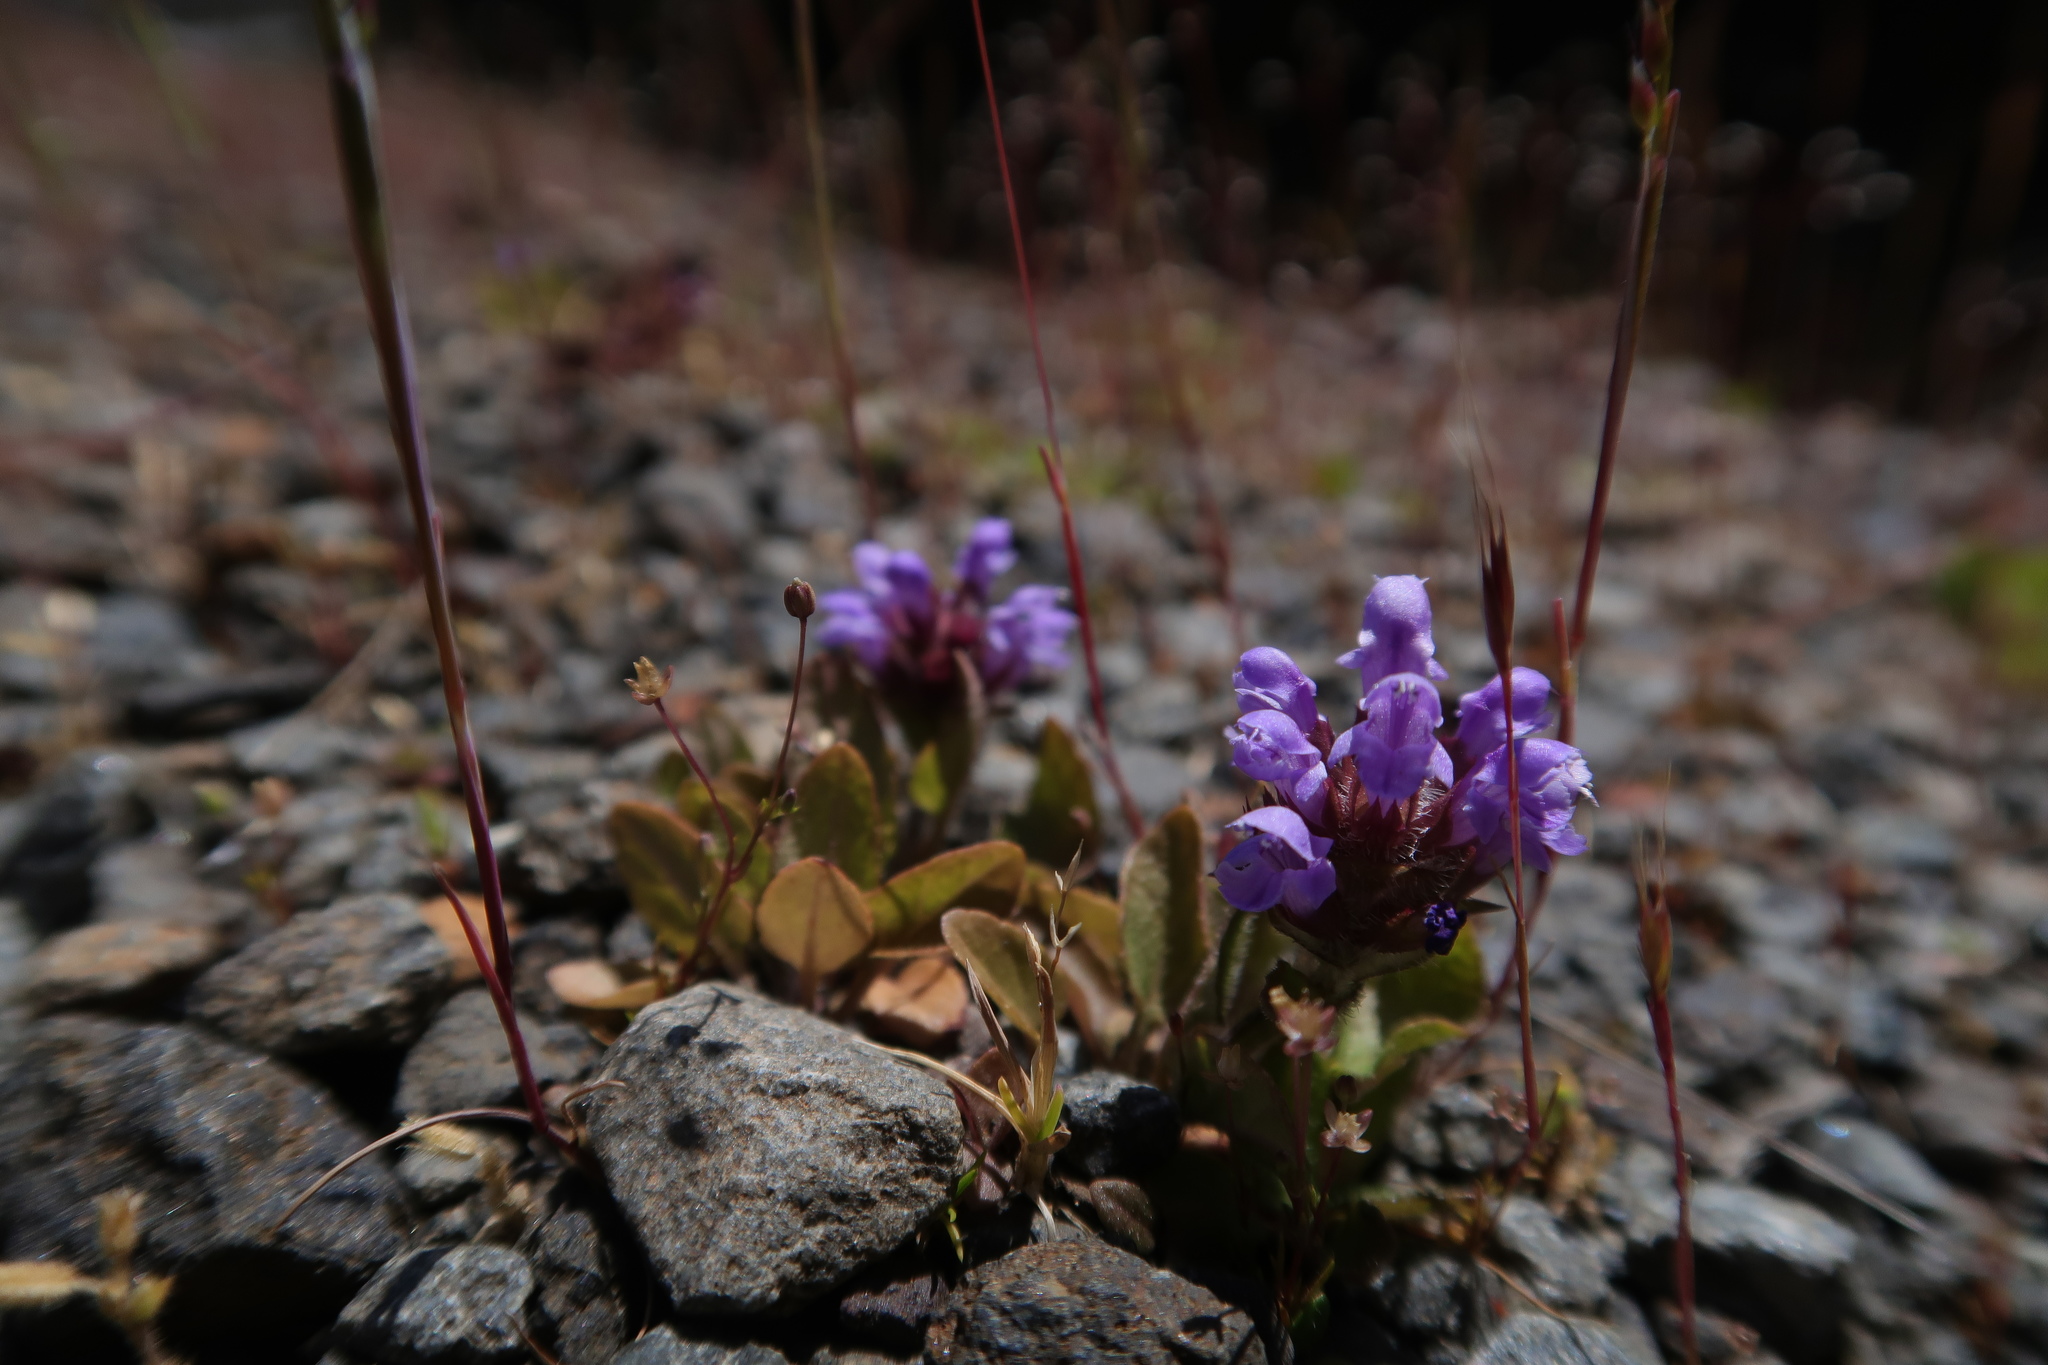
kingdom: Plantae
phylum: Tracheophyta
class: Magnoliopsida
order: Lamiales
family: Lamiaceae
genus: Prunella
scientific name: Prunella vulgaris
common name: Heal-all
